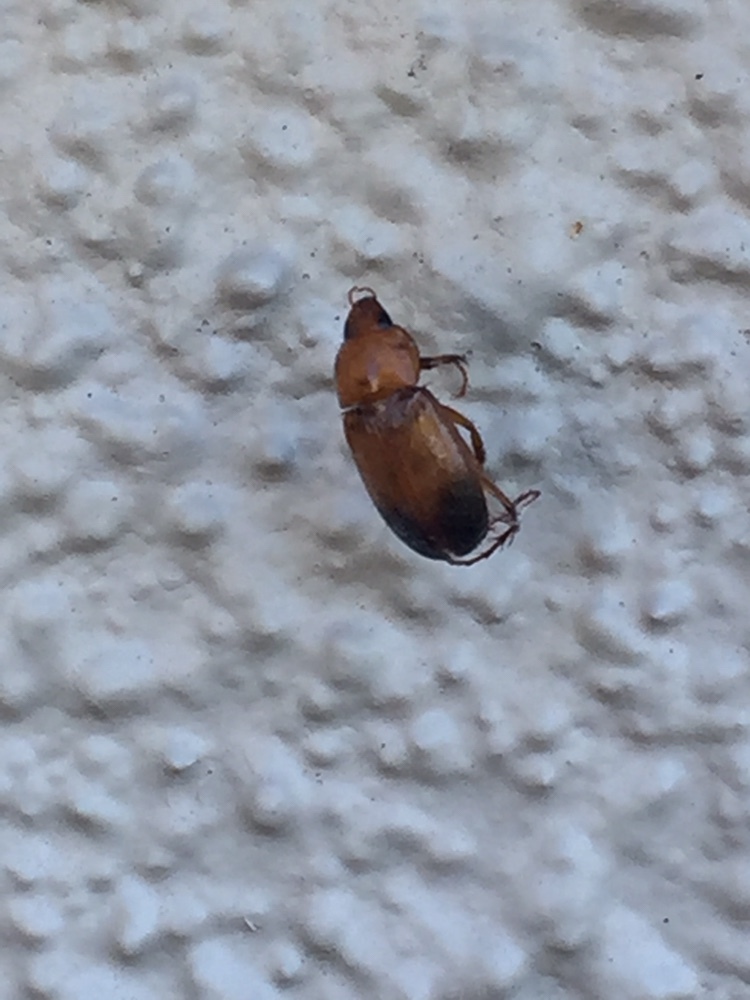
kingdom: Animalia
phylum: Arthropoda
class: Insecta
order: Coleoptera
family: Scarabaeidae
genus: Phyllotocus
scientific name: Phyllotocus macleayi
